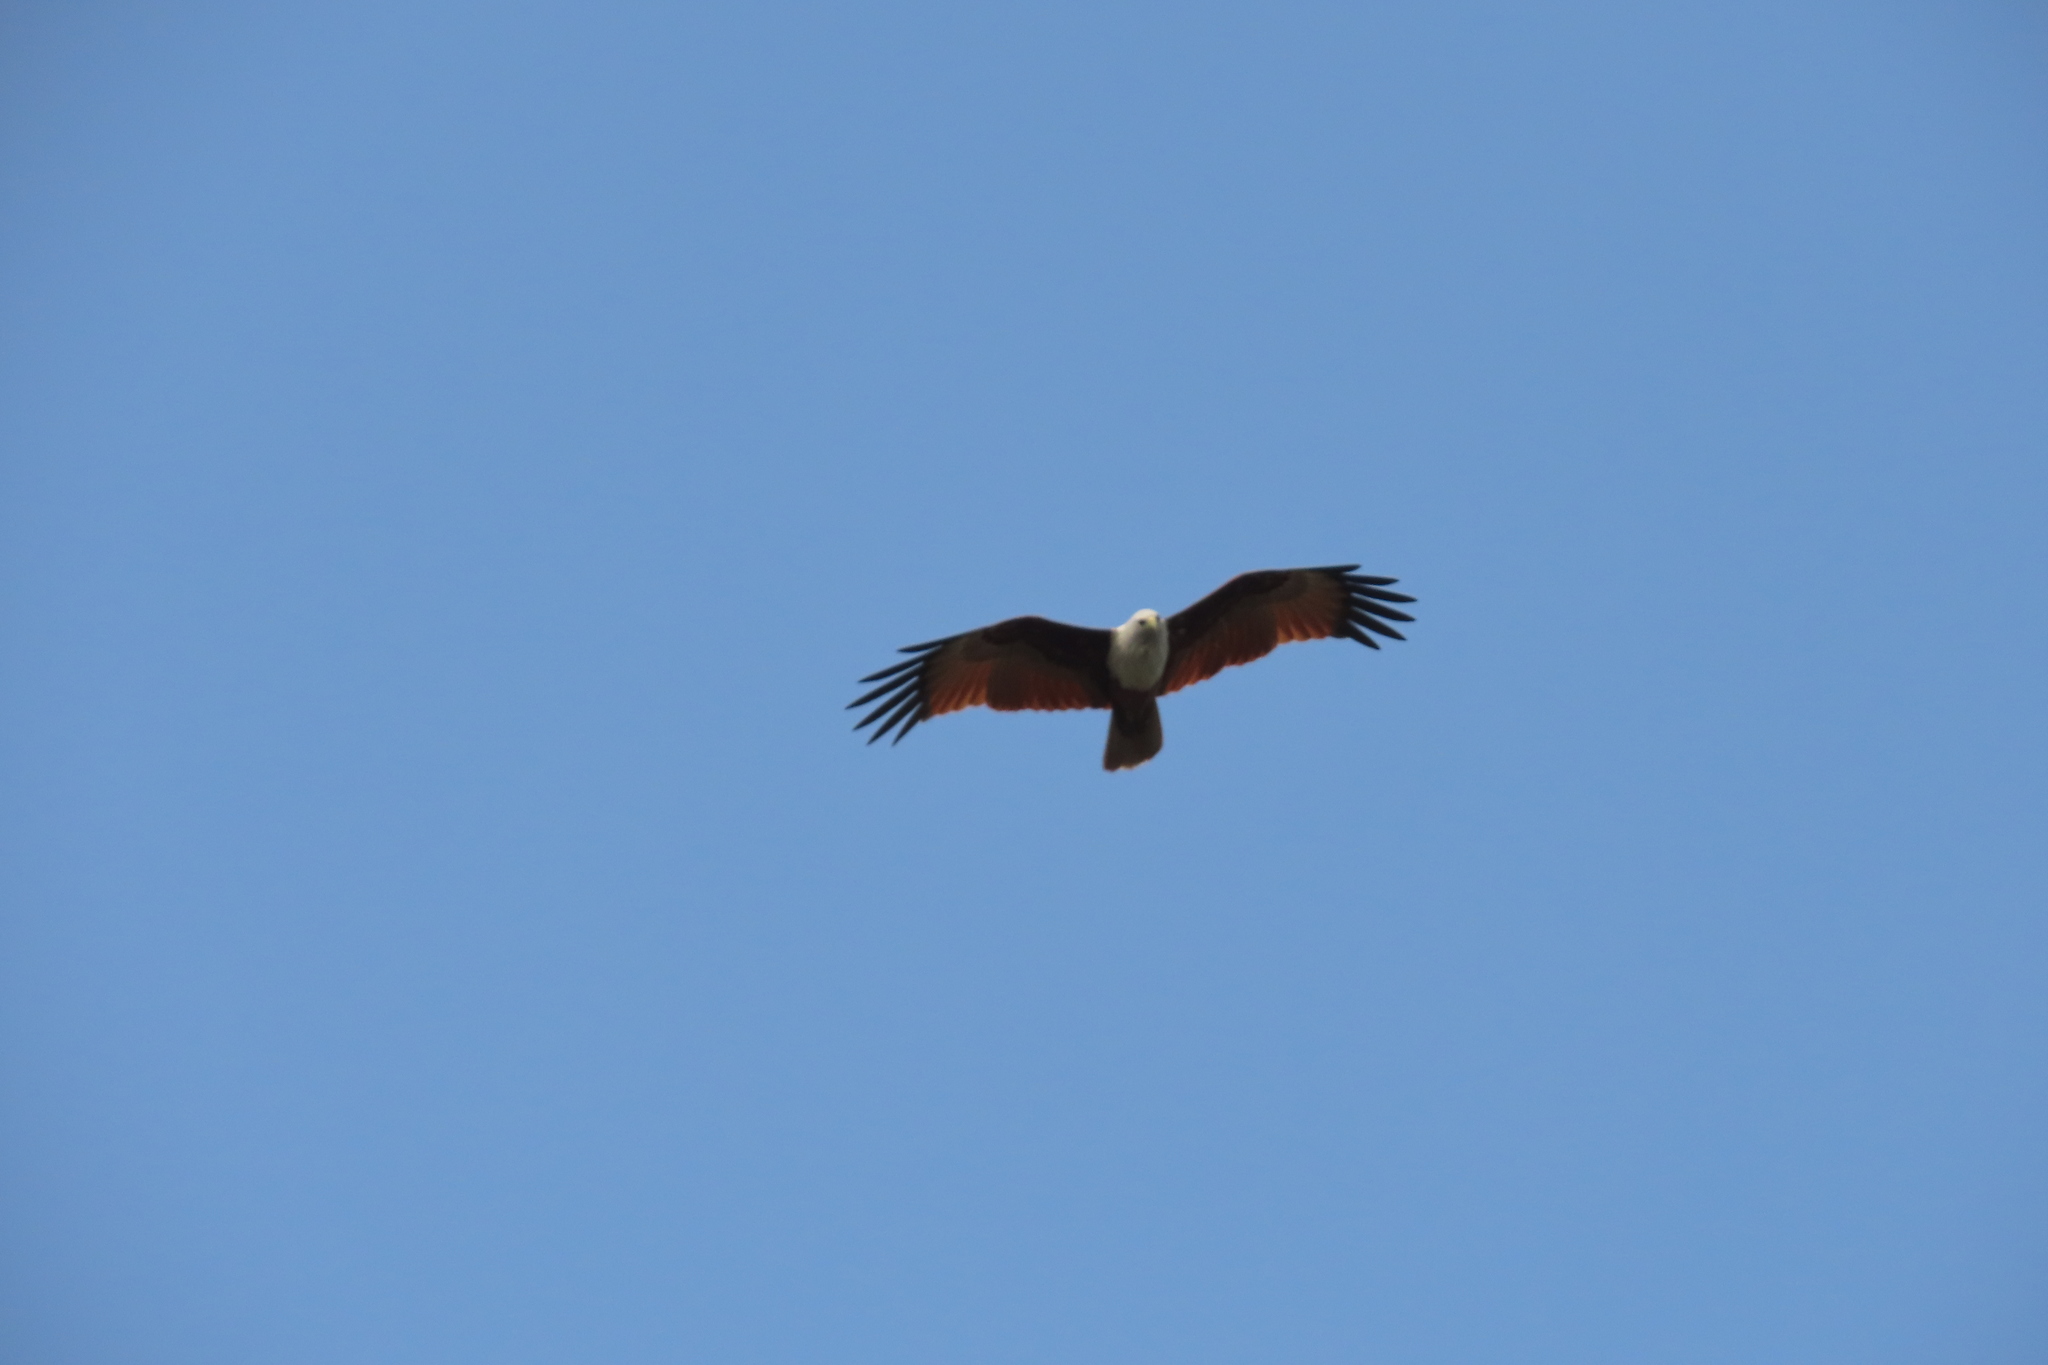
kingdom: Animalia
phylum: Chordata
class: Aves
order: Accipitriformes
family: Accipitridae
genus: Haliastur
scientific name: Haliastur indus
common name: Brahminy kite
